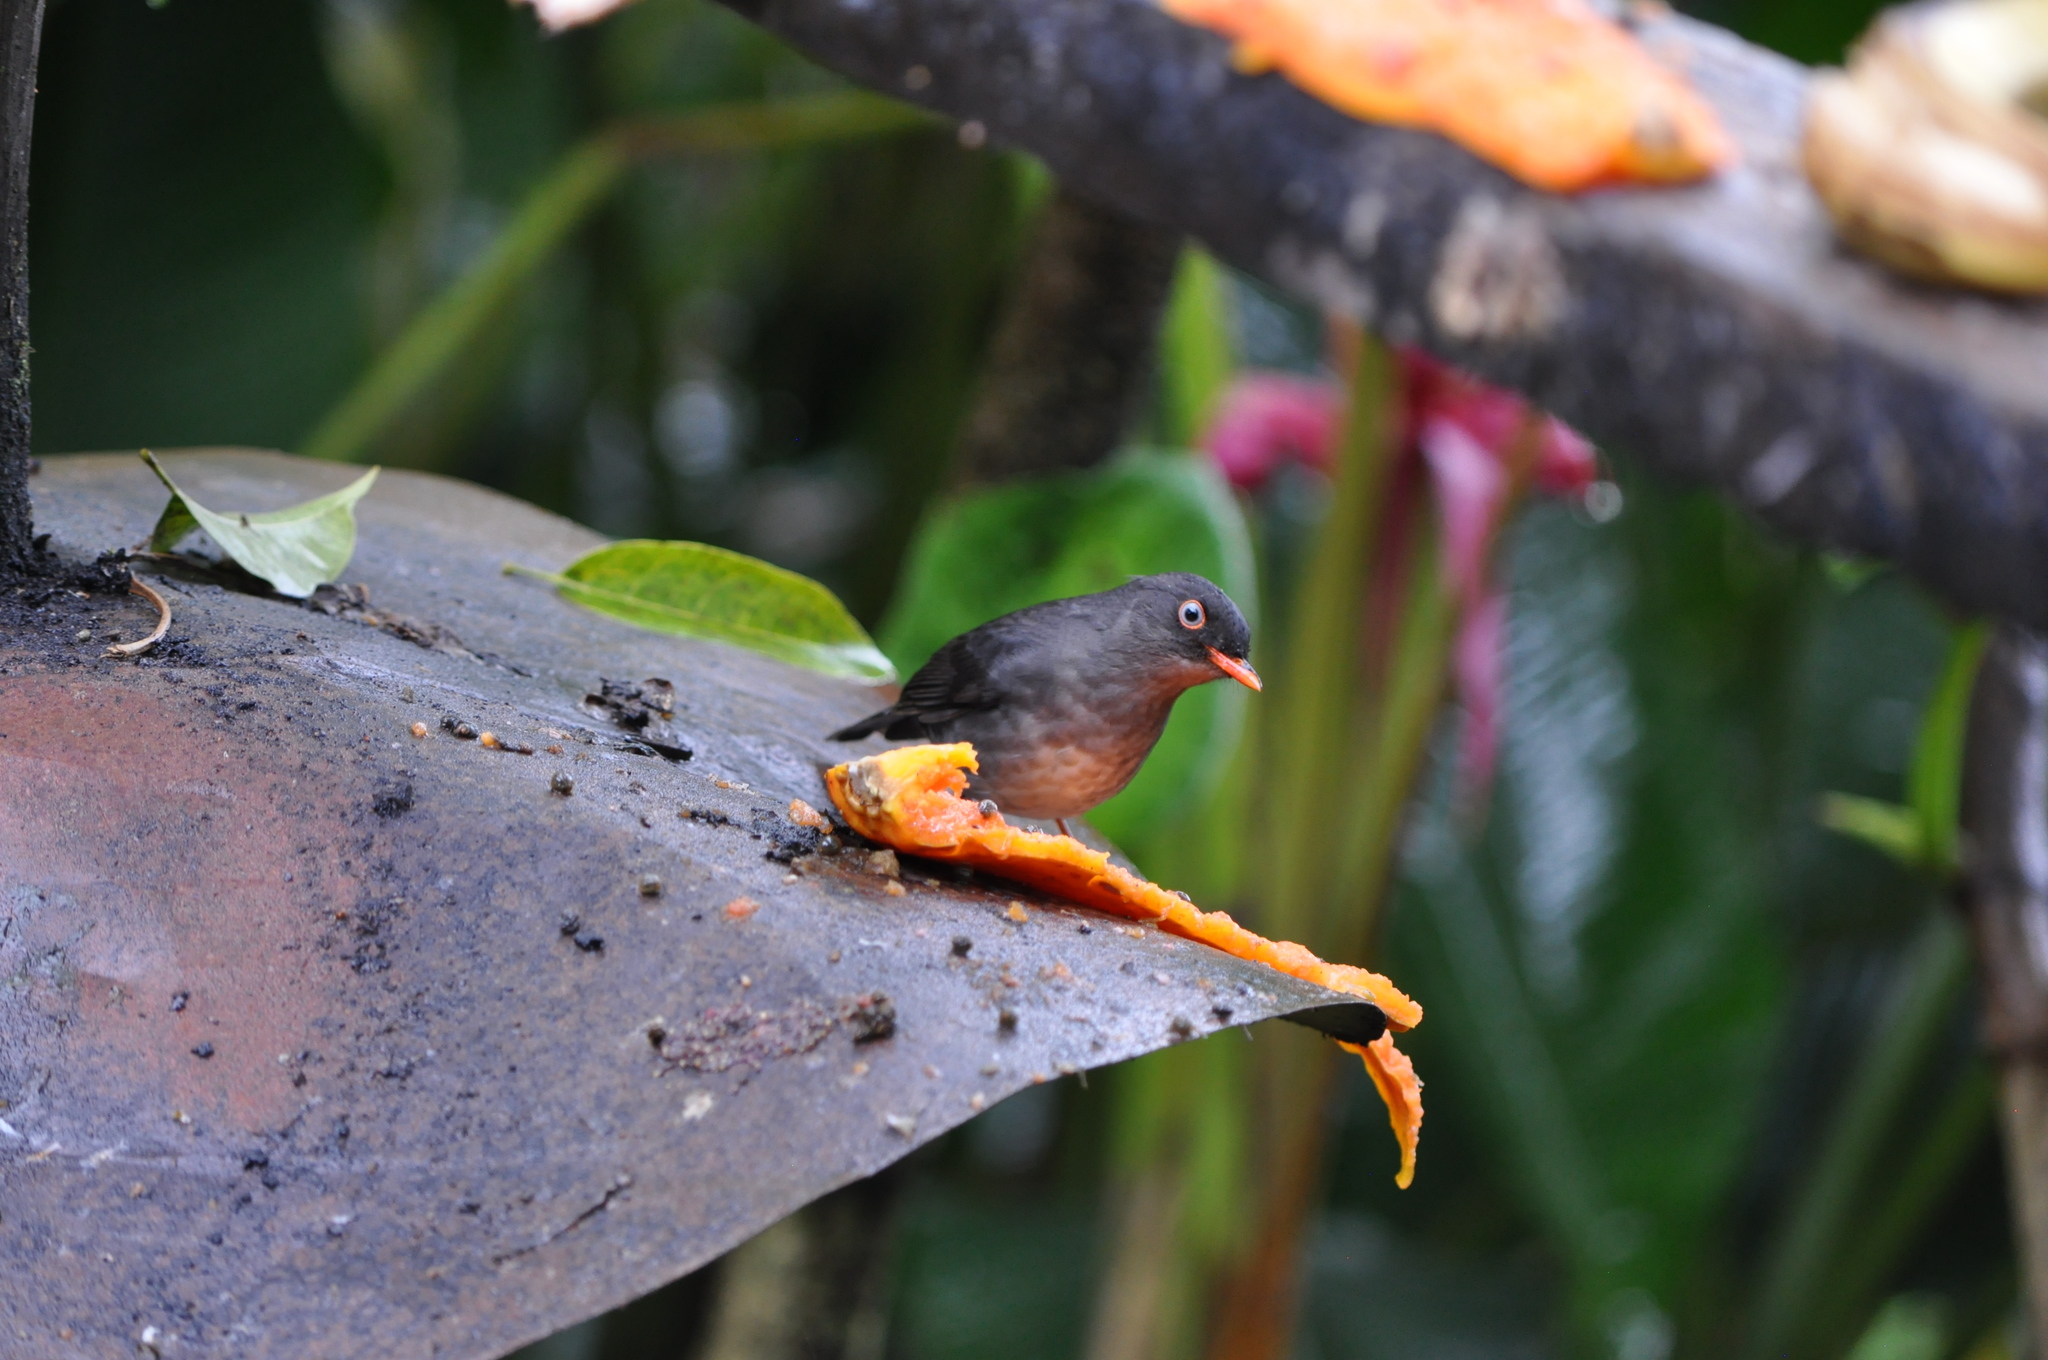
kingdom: Animalia
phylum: Chordata
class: Aves
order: Passeriformes
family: Turdidae
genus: Catharus
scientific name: Catharus fuscater
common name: Slaty-backed nightingale-thrush
